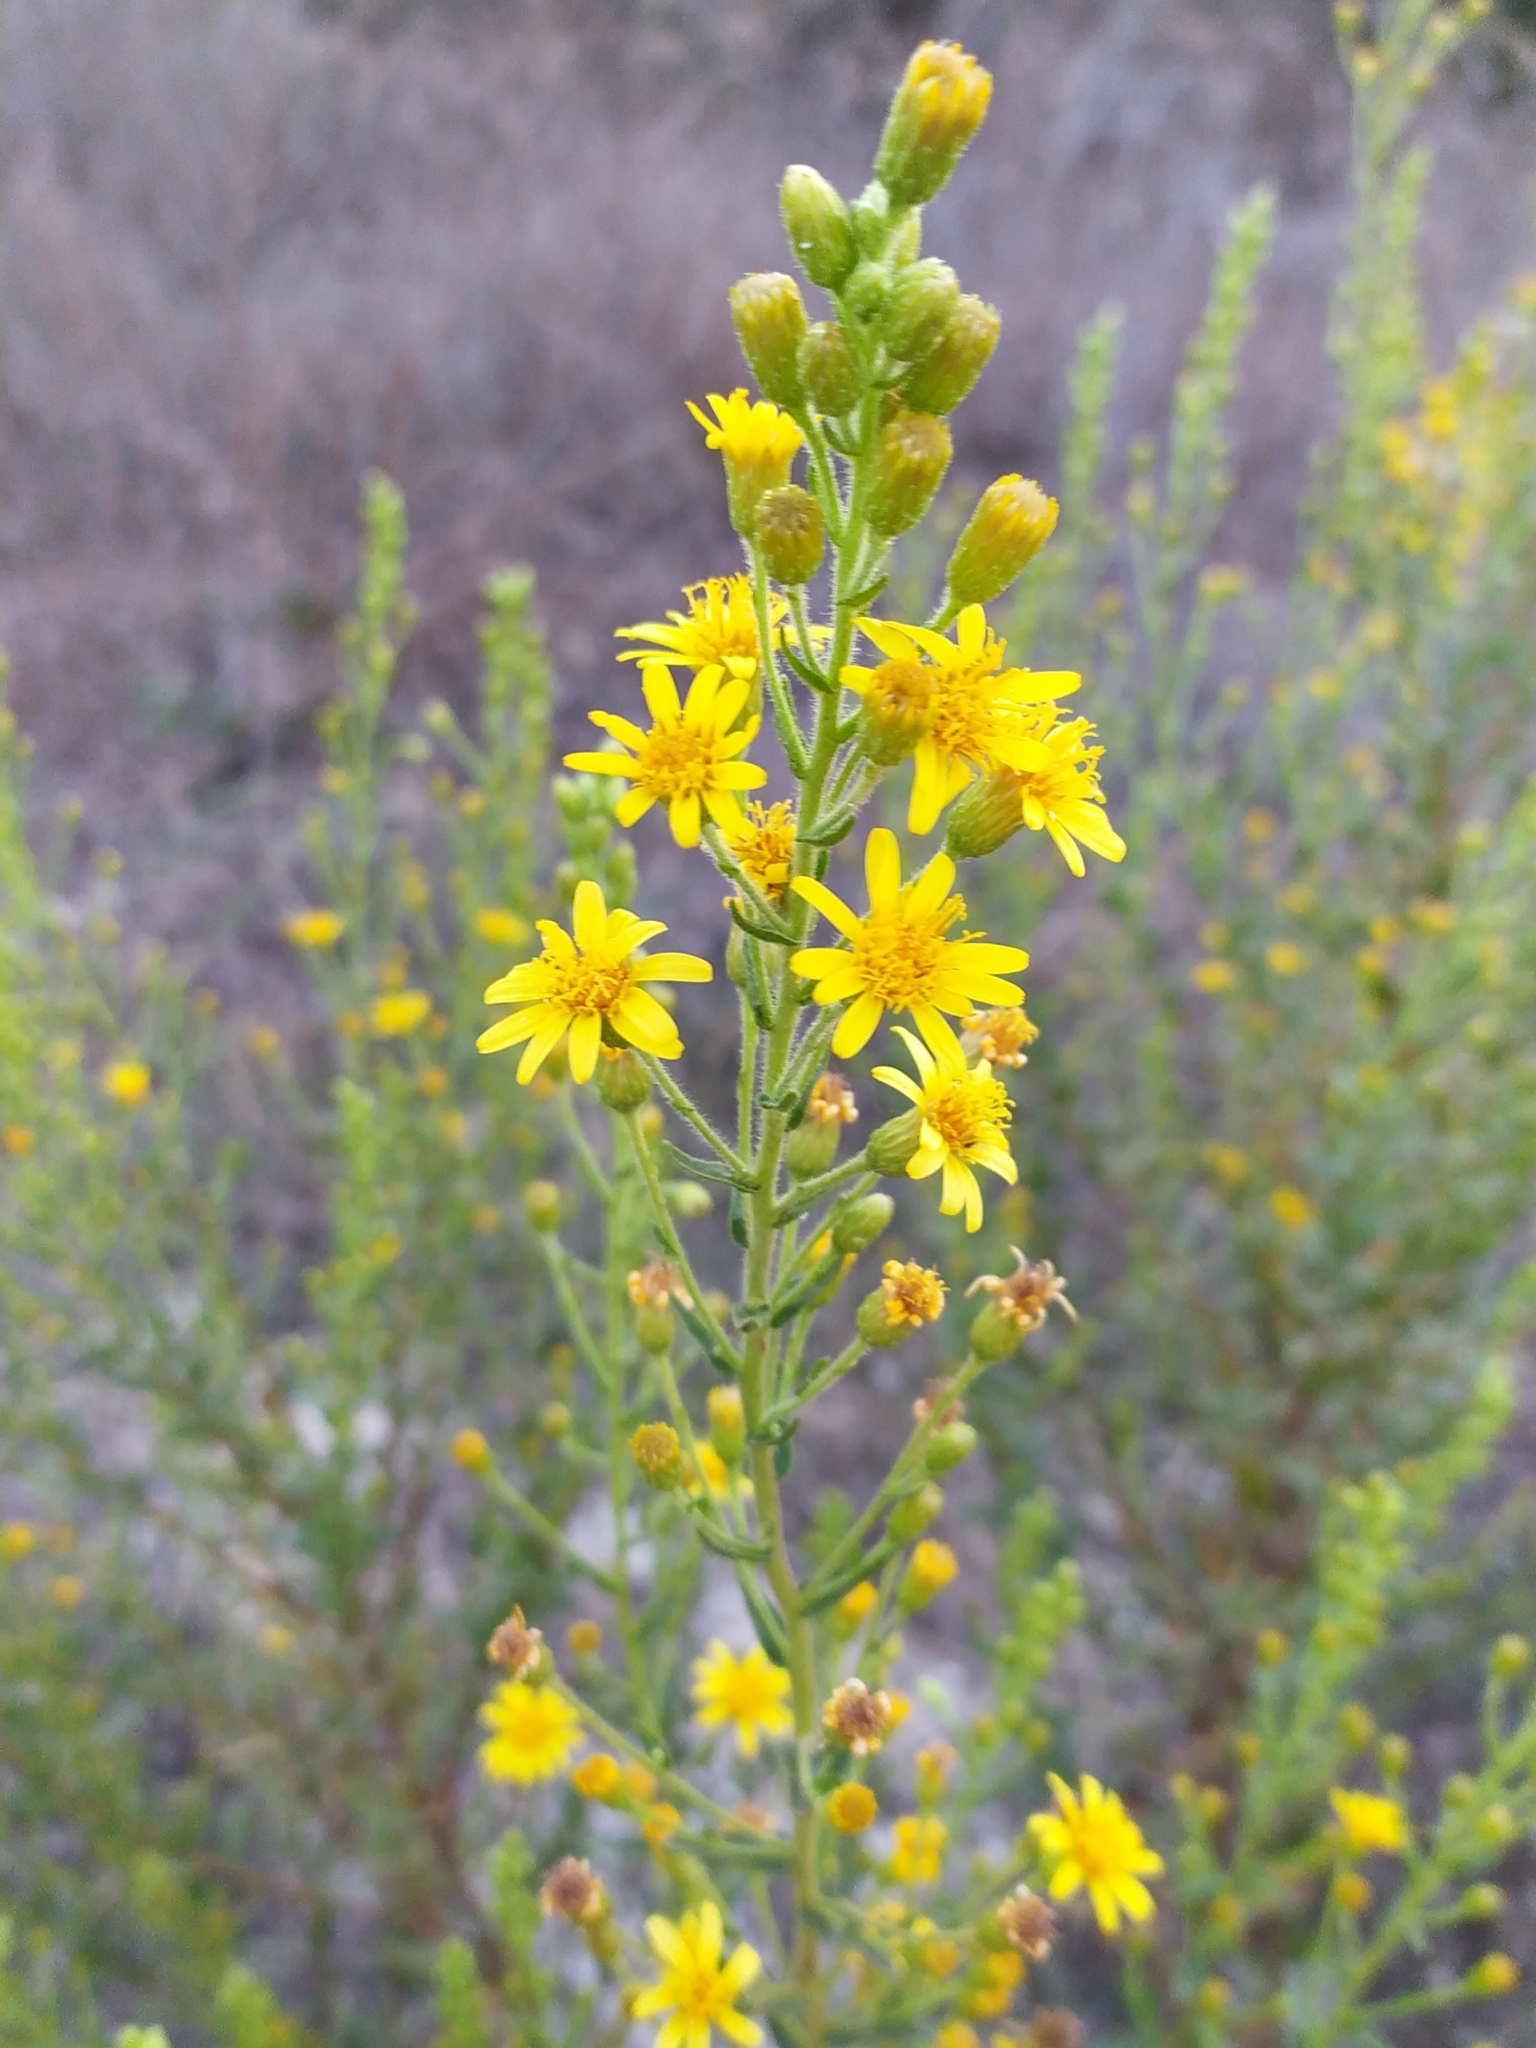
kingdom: Plantae
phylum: Tracheophyta
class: Magnoliopsida
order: Asterales
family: Asteraceae
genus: Dittrichia
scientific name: Dittrichia viscosa
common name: Woody fleabane
